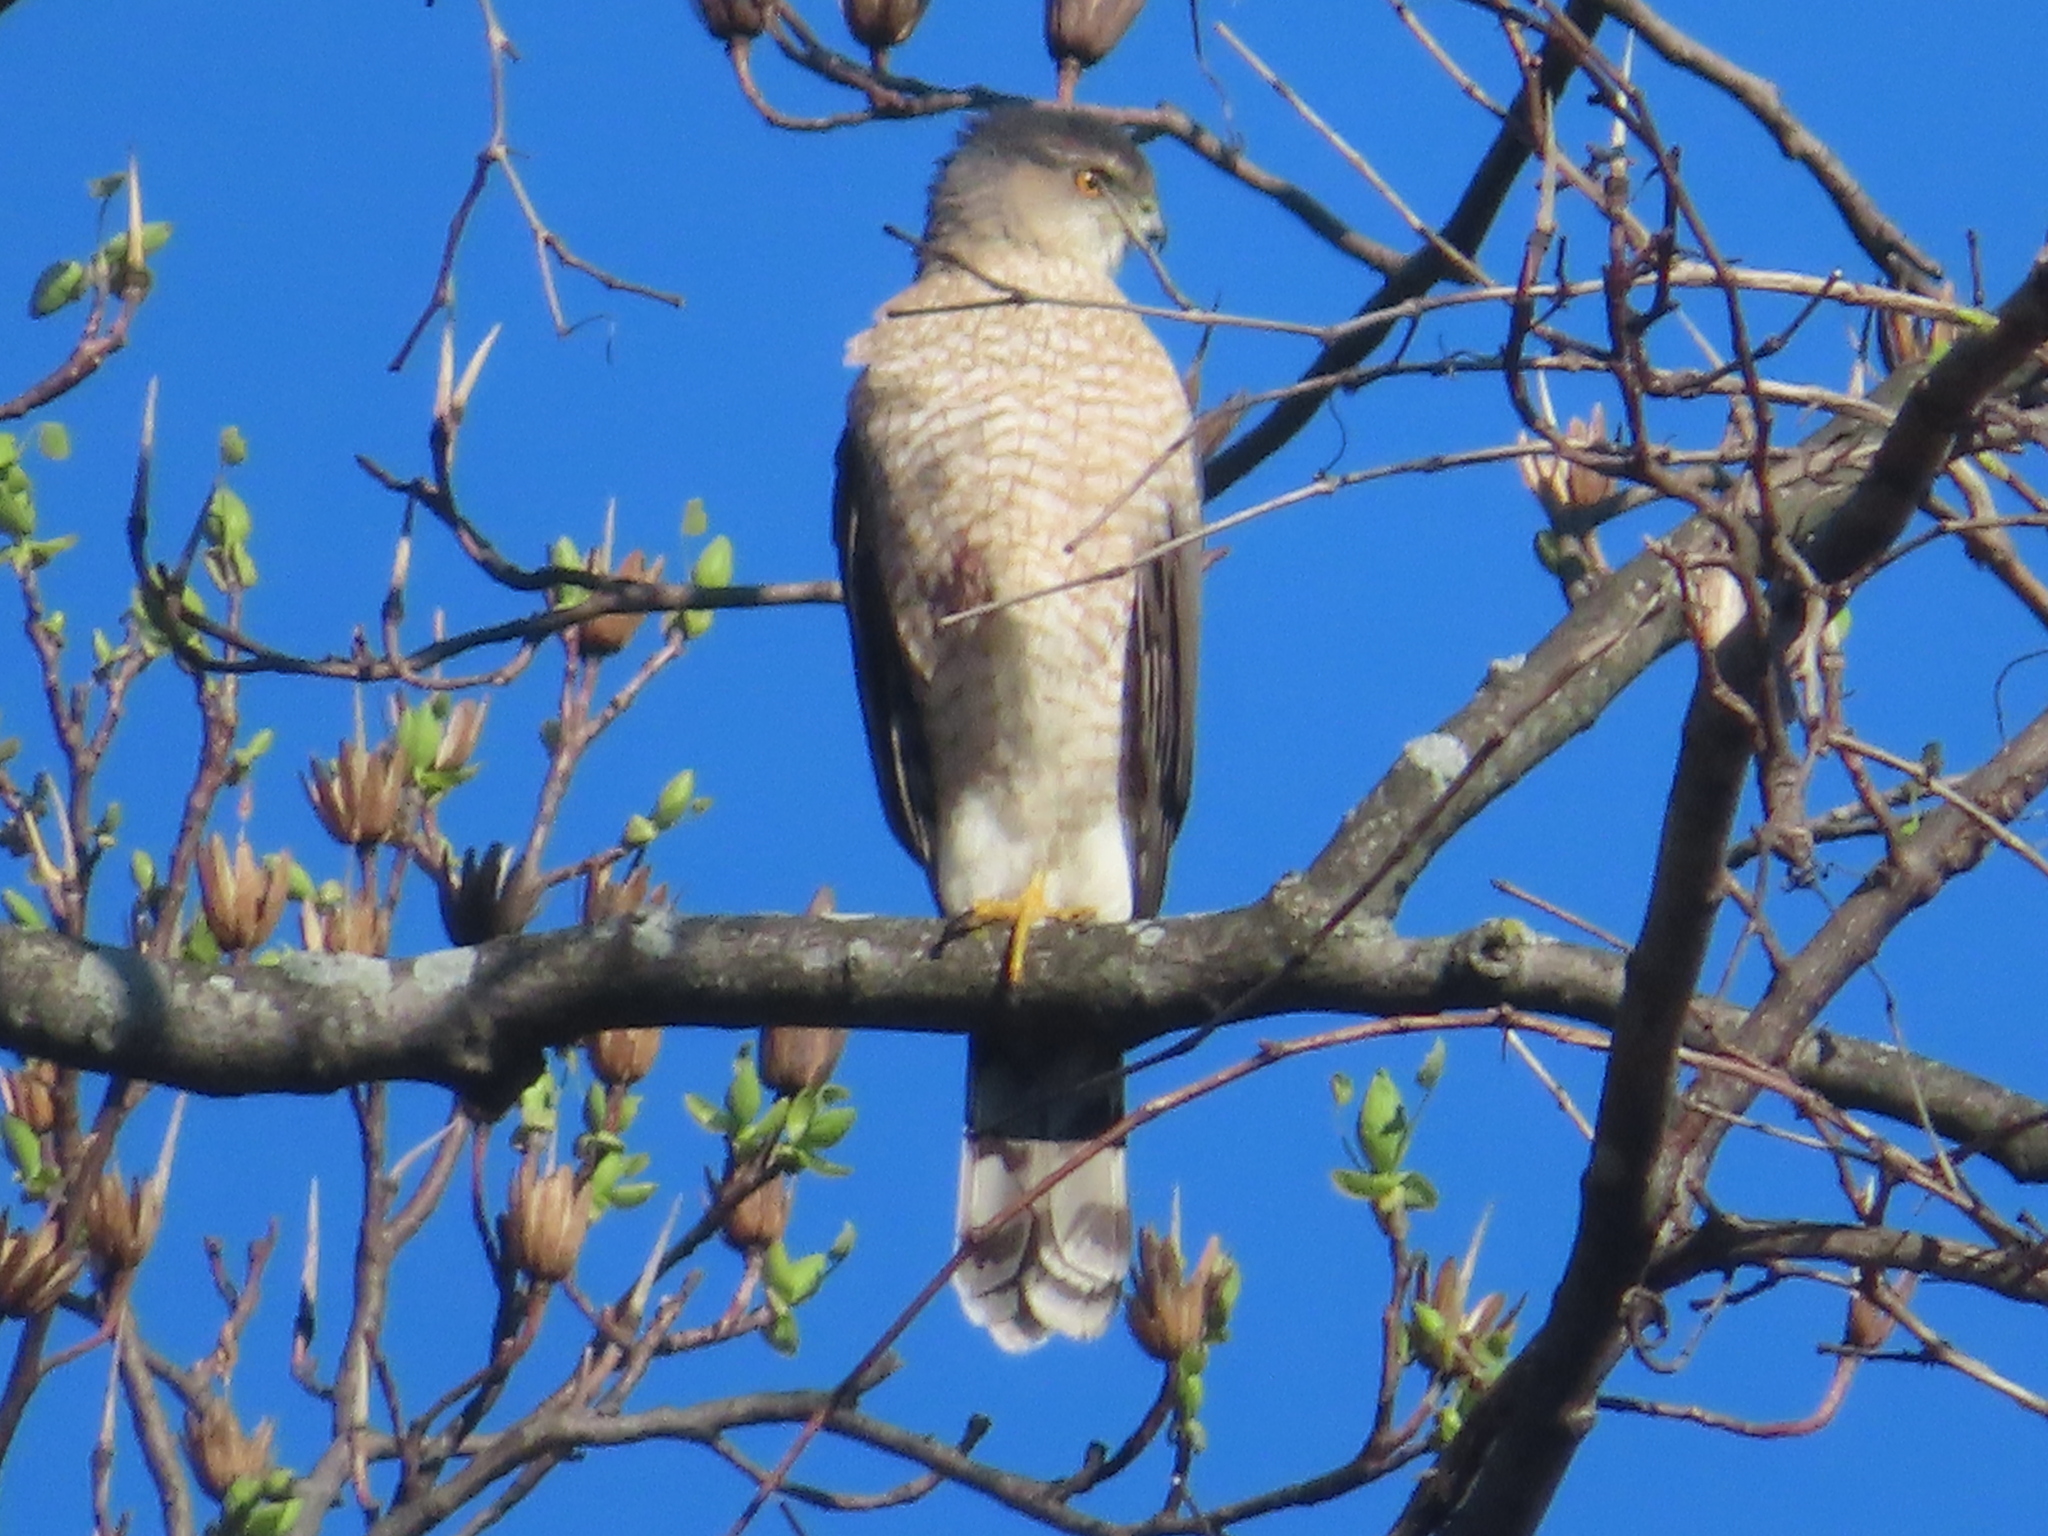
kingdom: Animalia
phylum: Chordata
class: Aves
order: Accipitriformes
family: Accipitridae
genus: Accipiter
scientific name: Accipiter cooperii
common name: Cooper's hawk
